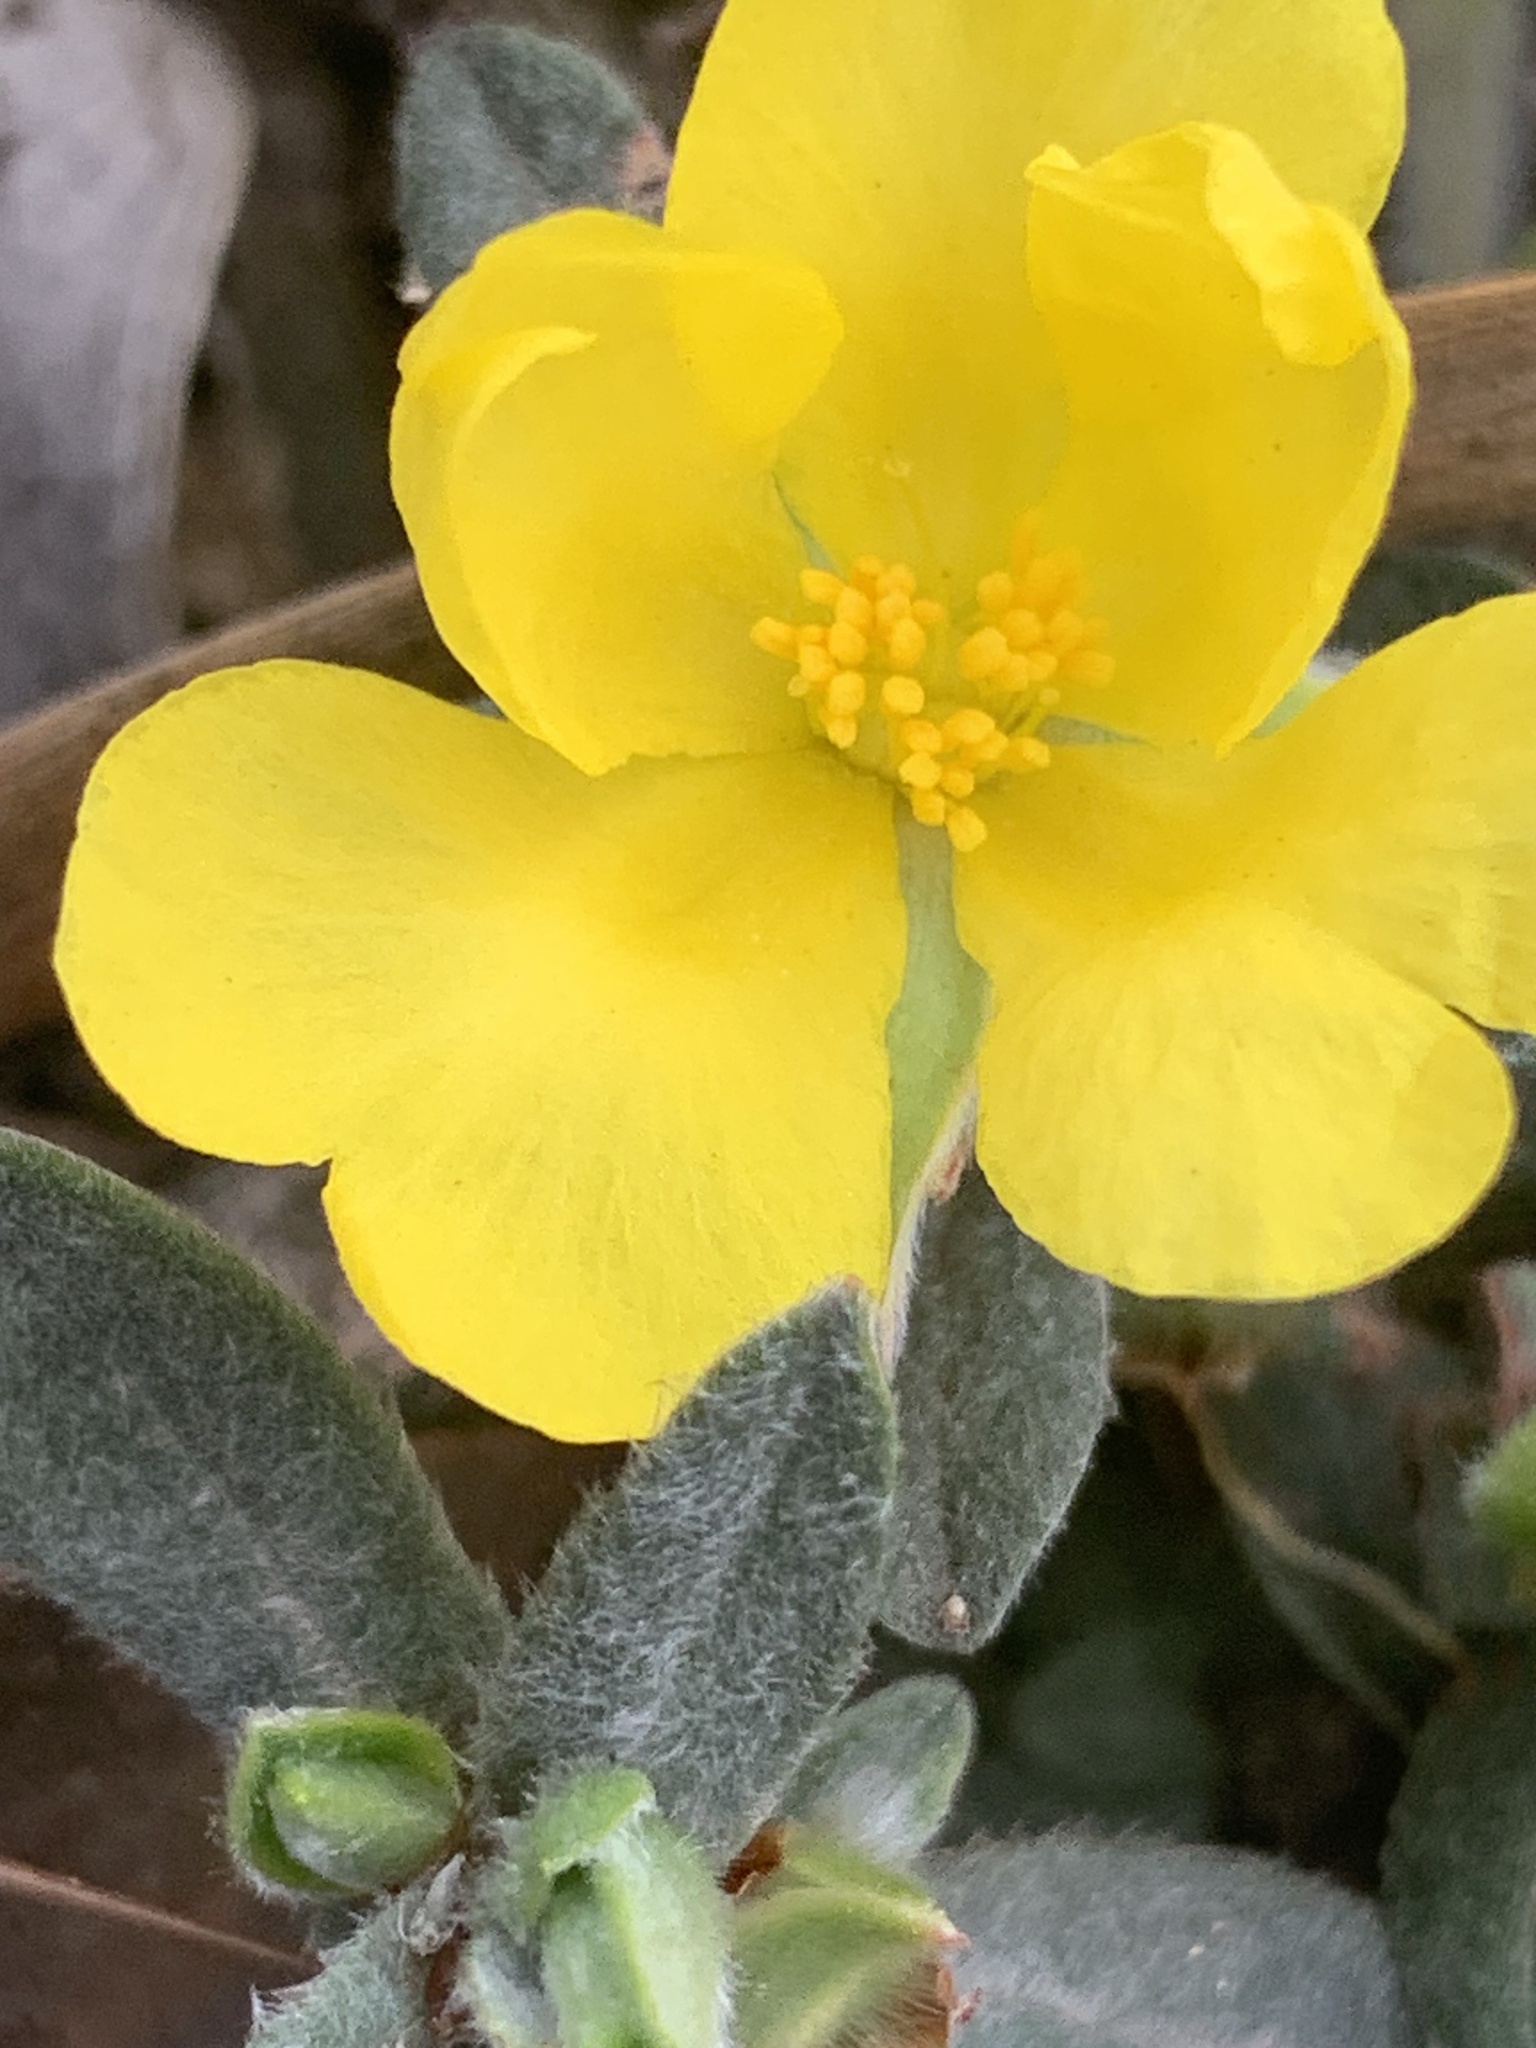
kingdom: Plantae
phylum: Tracheophyta
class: Magnoliopsida
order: Dilleniales
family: Dilleniaceae
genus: Hibbertia
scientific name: Hibbertia commutata
